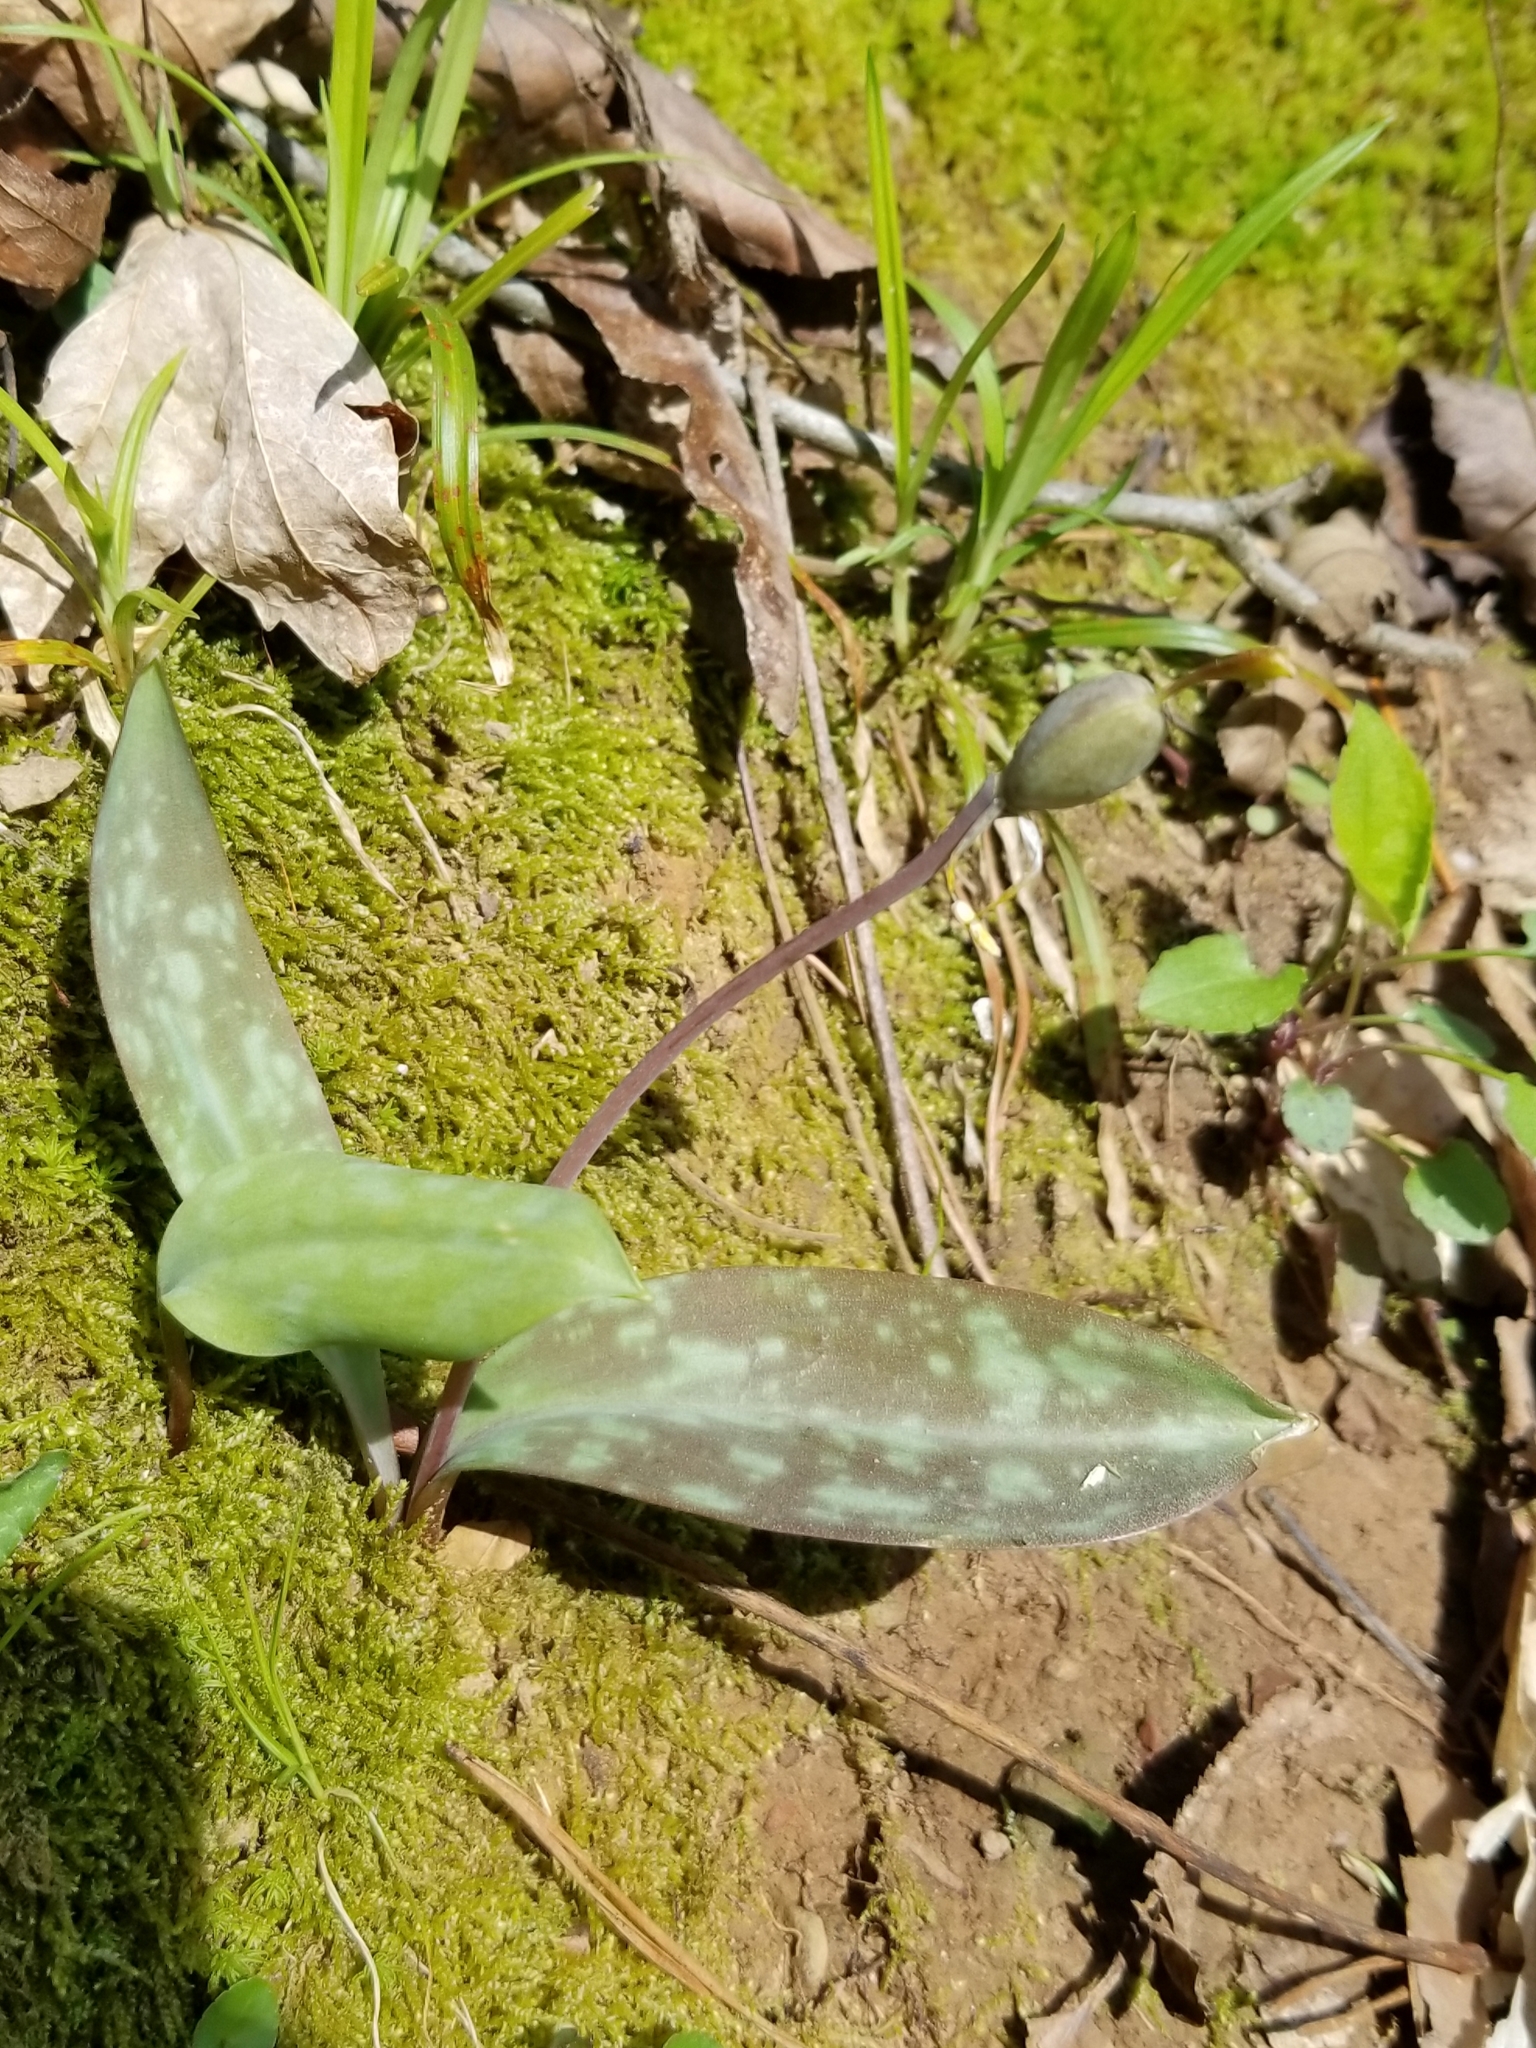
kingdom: Plantae
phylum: Tracheophyta
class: Liliopsida
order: Liliales
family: Liliaceae
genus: Erythronium
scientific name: Erythronium americanum
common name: Yellow adder's-tongue
